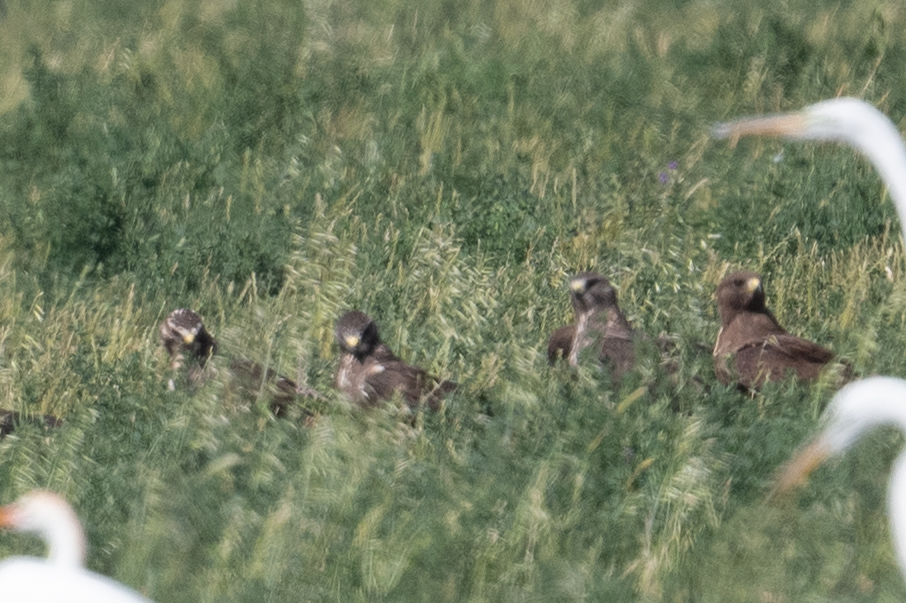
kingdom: Animalia
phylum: Chordata
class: Aves
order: Accipitriformes
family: Accipitridae
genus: Buteo
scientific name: Buteo swainsoni
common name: Swainson's hawk
